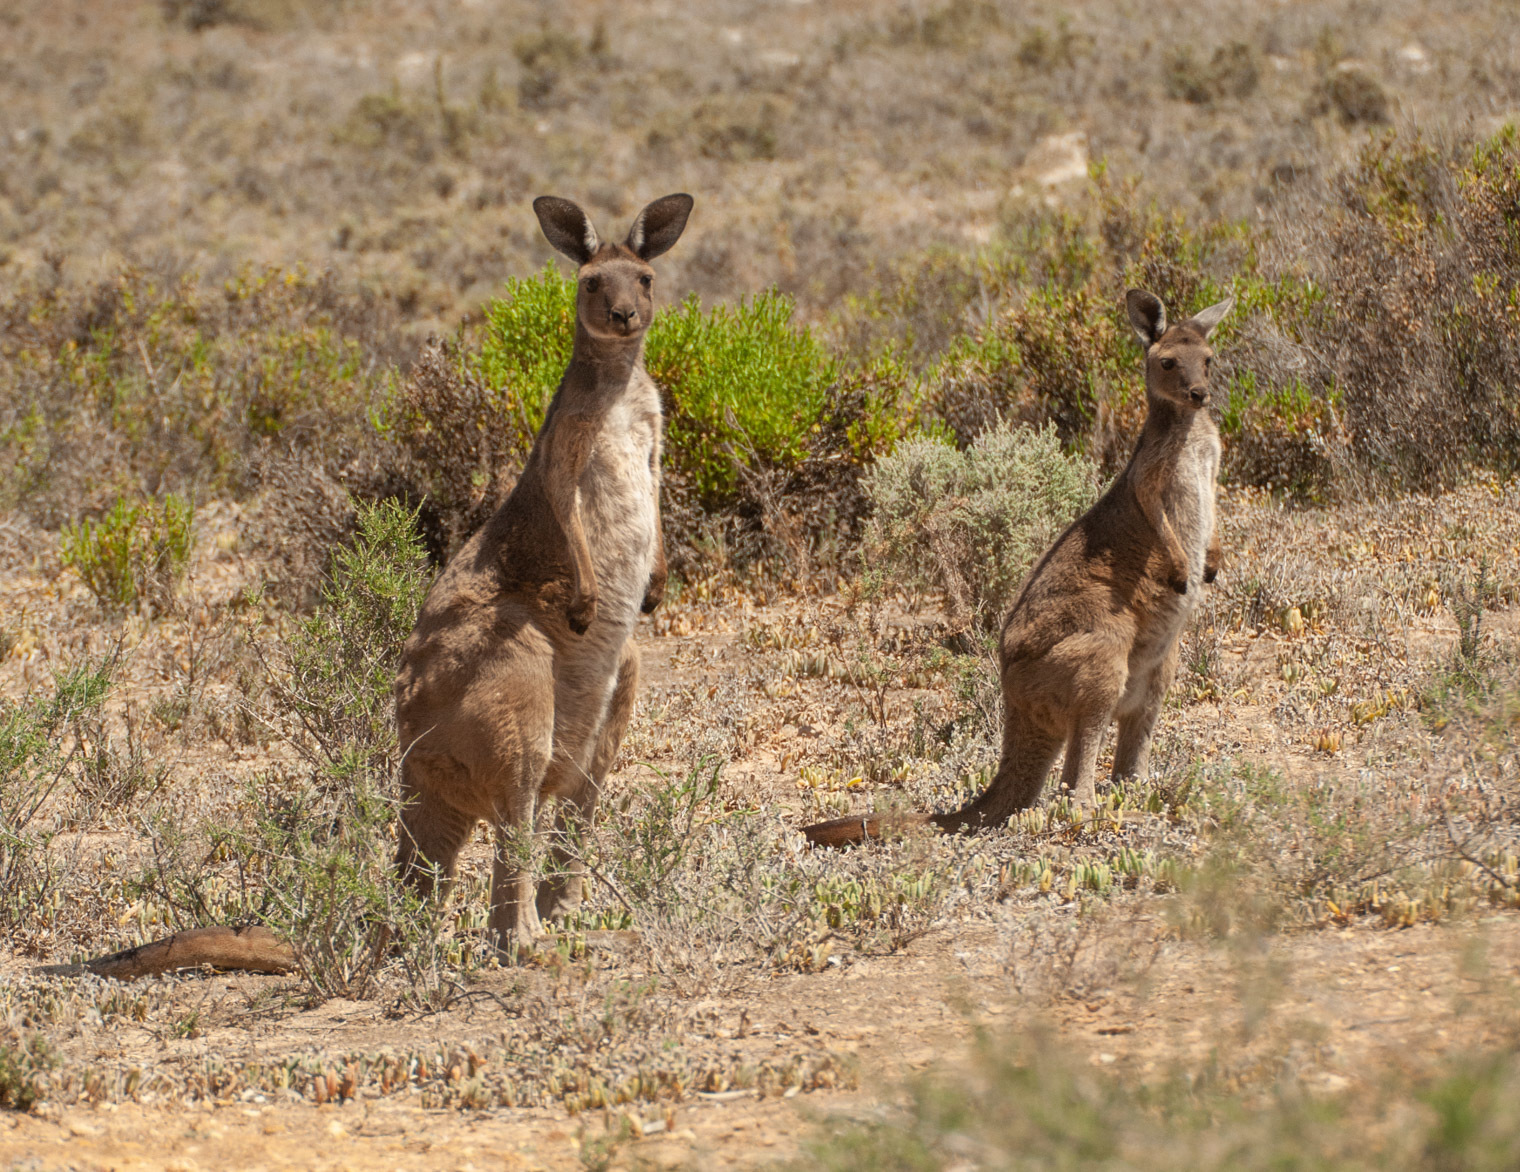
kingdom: Animalia
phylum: Chordata
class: Mammalia
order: Diprotodontia
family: Macropodidae
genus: Macropus
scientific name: Macropus fuliginosus
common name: Western grey kangaroo
